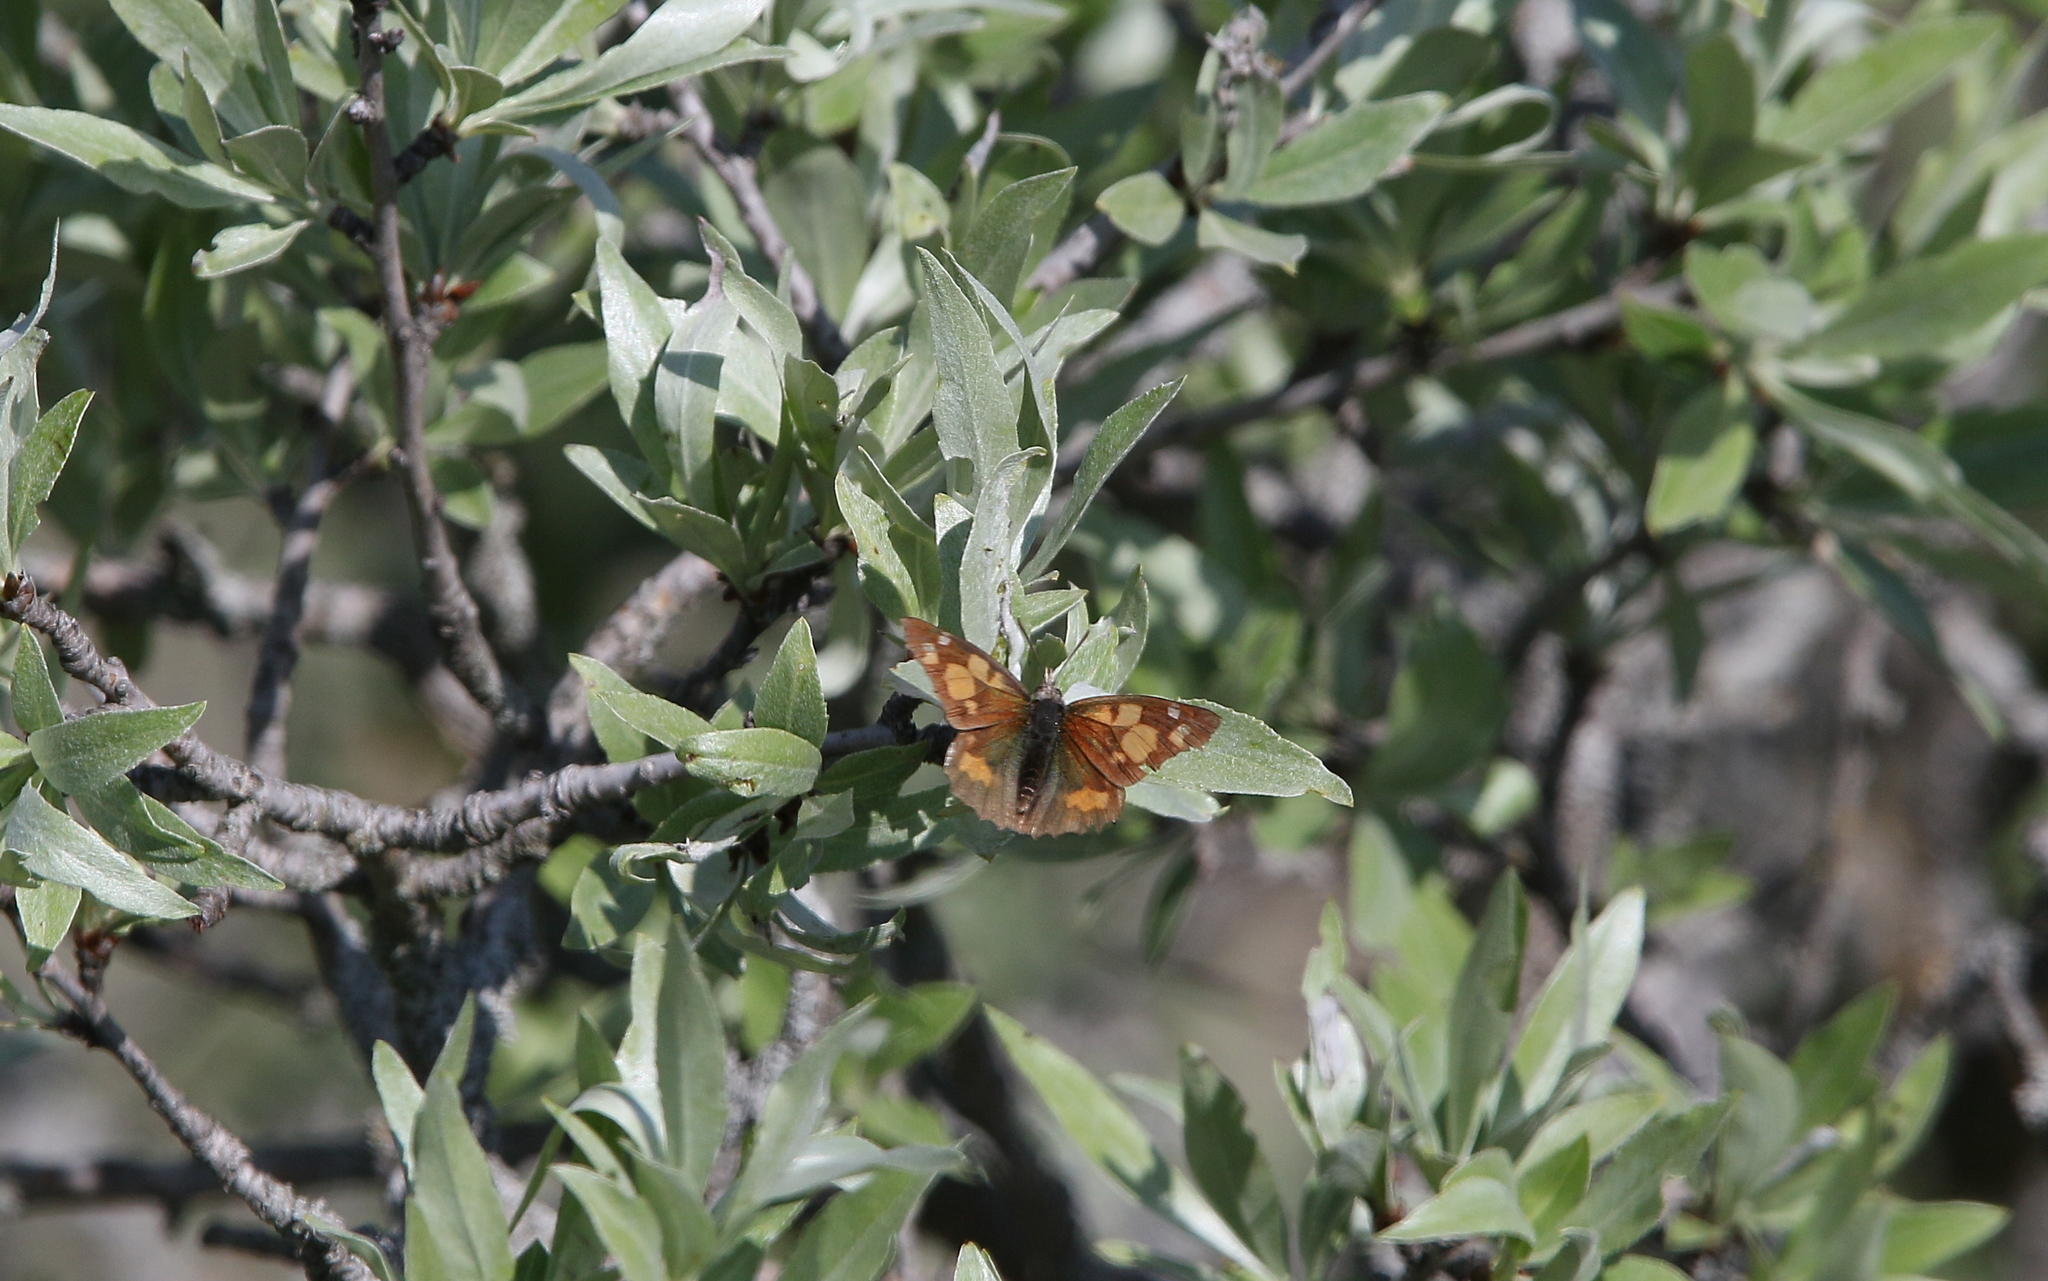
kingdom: Animalia
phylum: Arthropoda
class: Insecta
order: Lepidoptera
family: Nymphalidae
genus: Libythea
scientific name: Libythea celtis
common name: Nettle-tree butterfly
